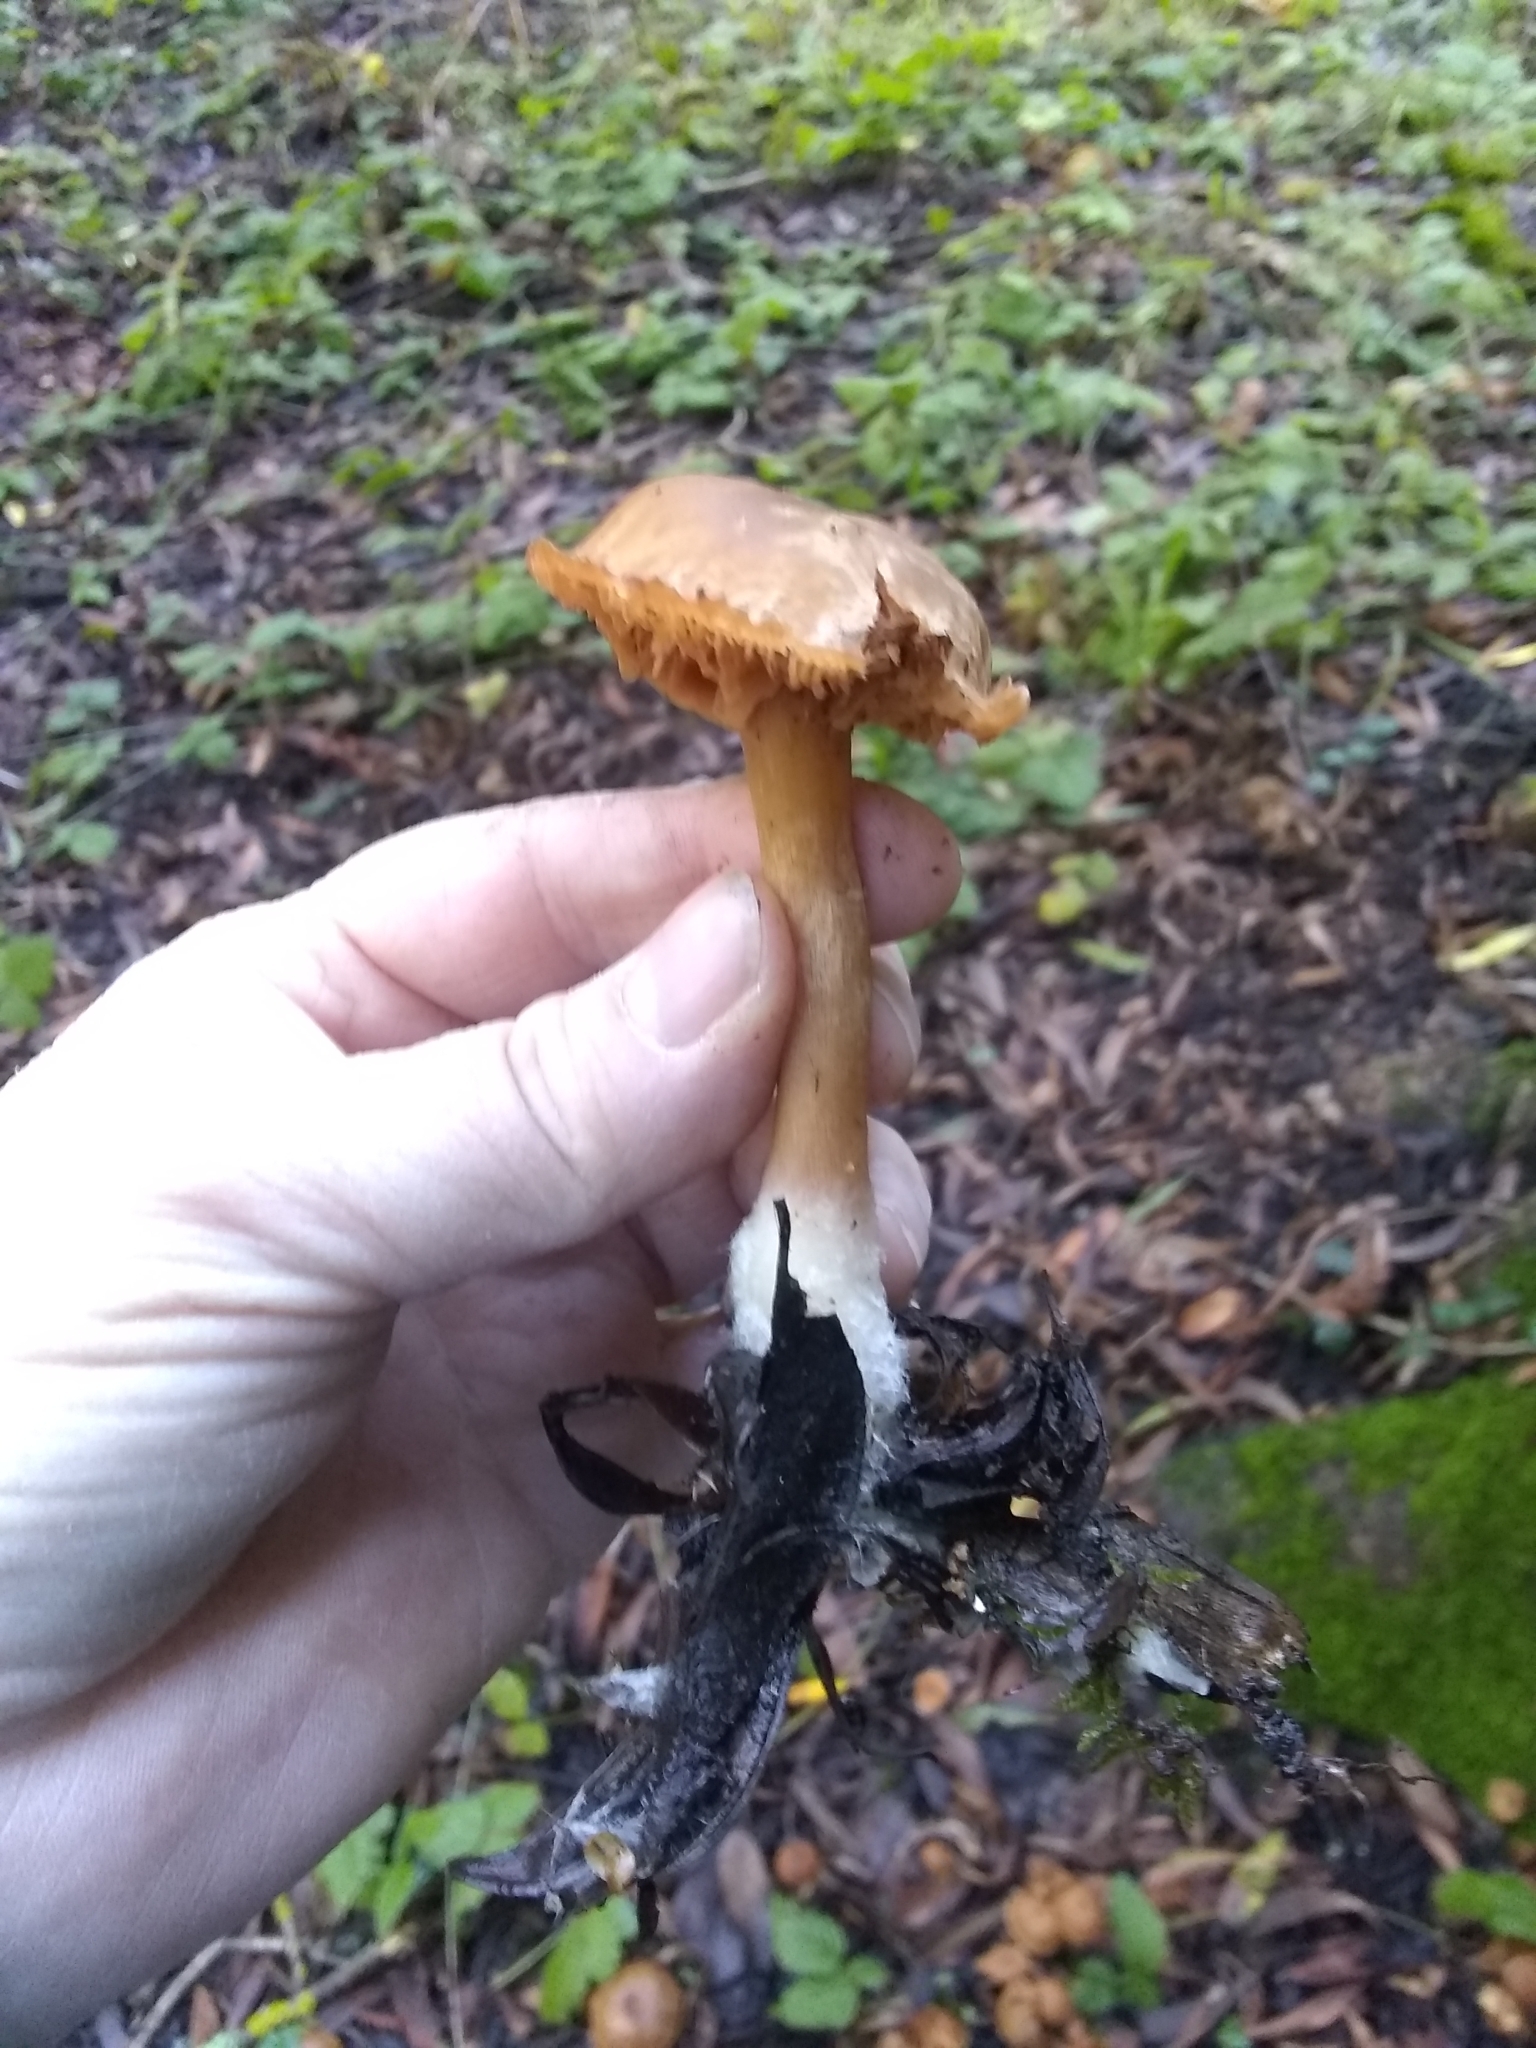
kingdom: Fungi
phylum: Basidiomycota
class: Agaricomycetes
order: Agaricales
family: Tubariaceae
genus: Tubaria
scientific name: Tubaria furfuracea
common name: Scurfy twiglet
